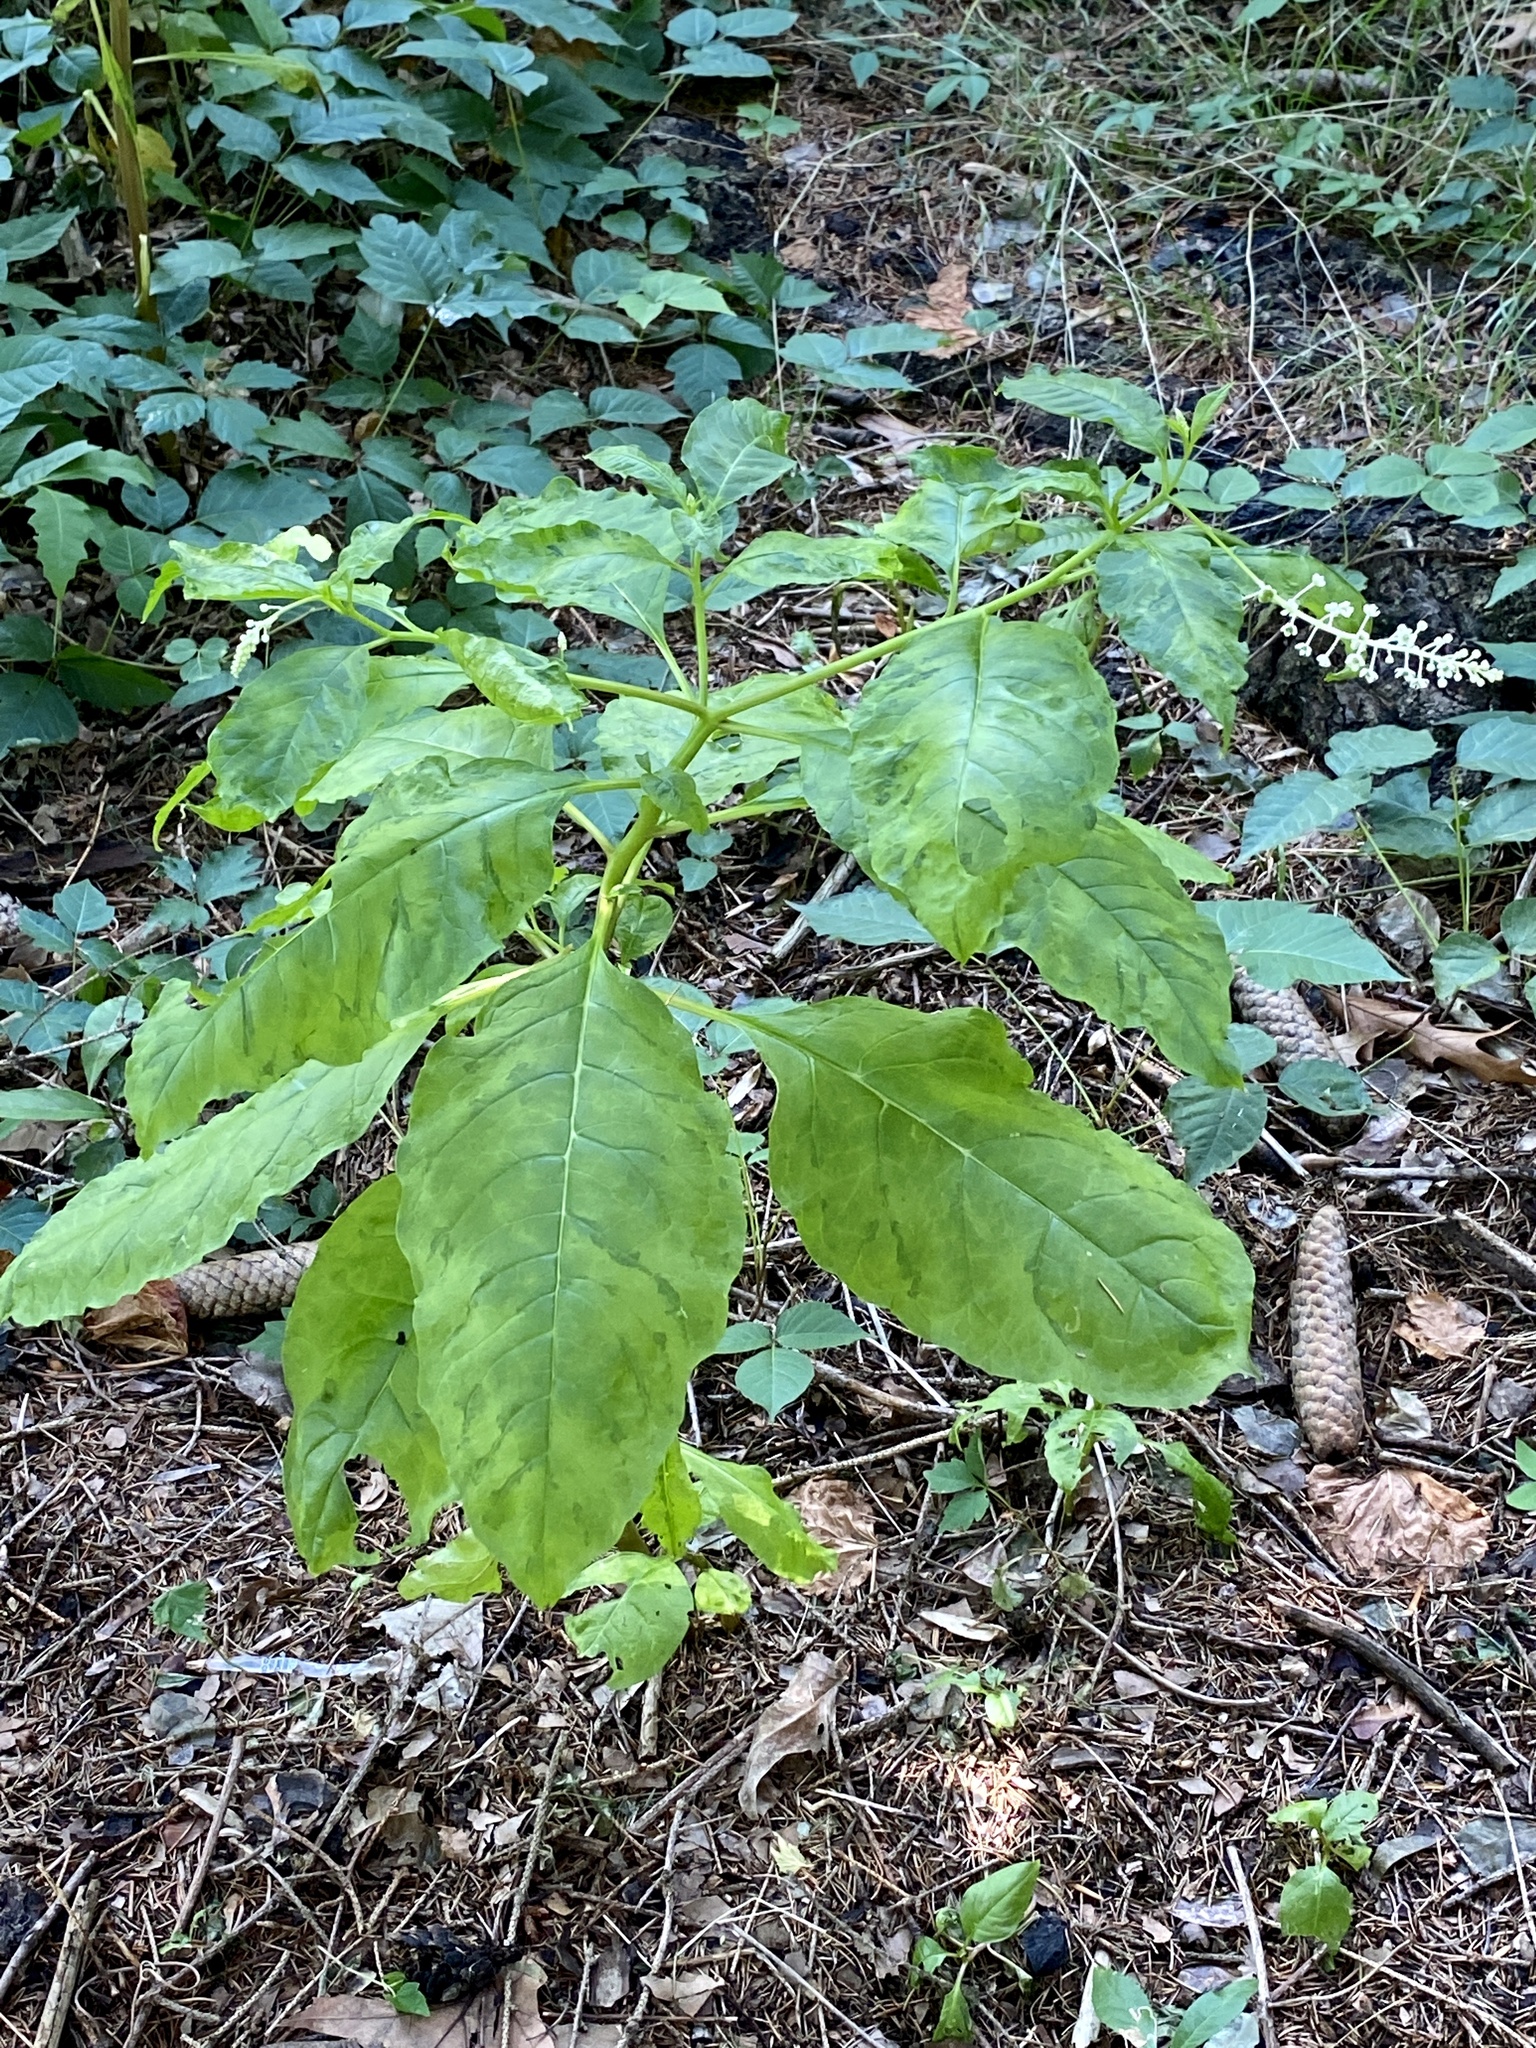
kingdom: Plantae
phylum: Tracheophyta
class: Magnoliopsida
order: Caryophyllales
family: Phytolaccaceae
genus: Phytolacca
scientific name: Phytolacca americana
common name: American pokeweed
